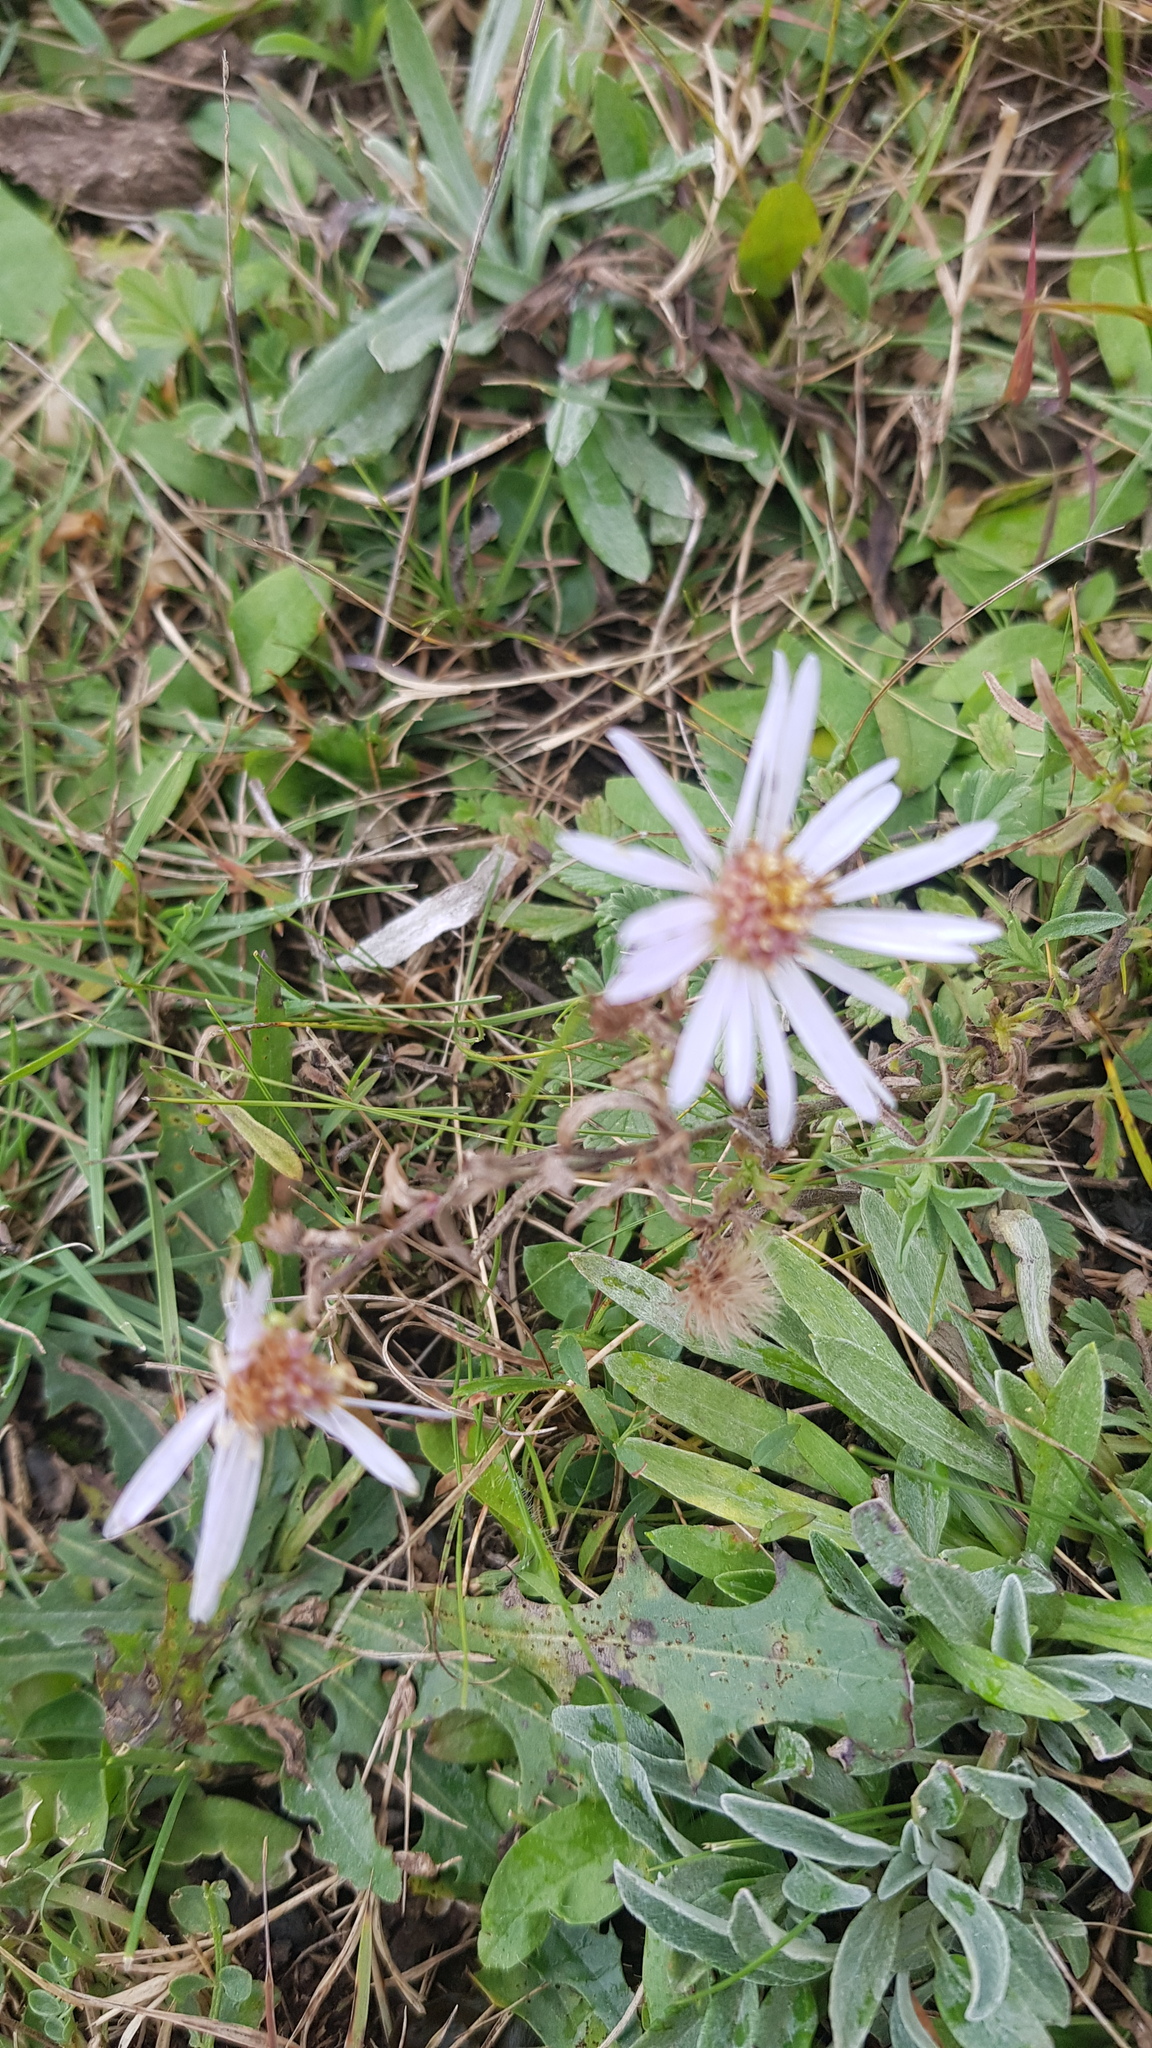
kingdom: Plantae
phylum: Tracheophyta
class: Magnoliopsida
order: Asterales
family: Asteraceae
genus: Aster
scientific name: Aster biennis
